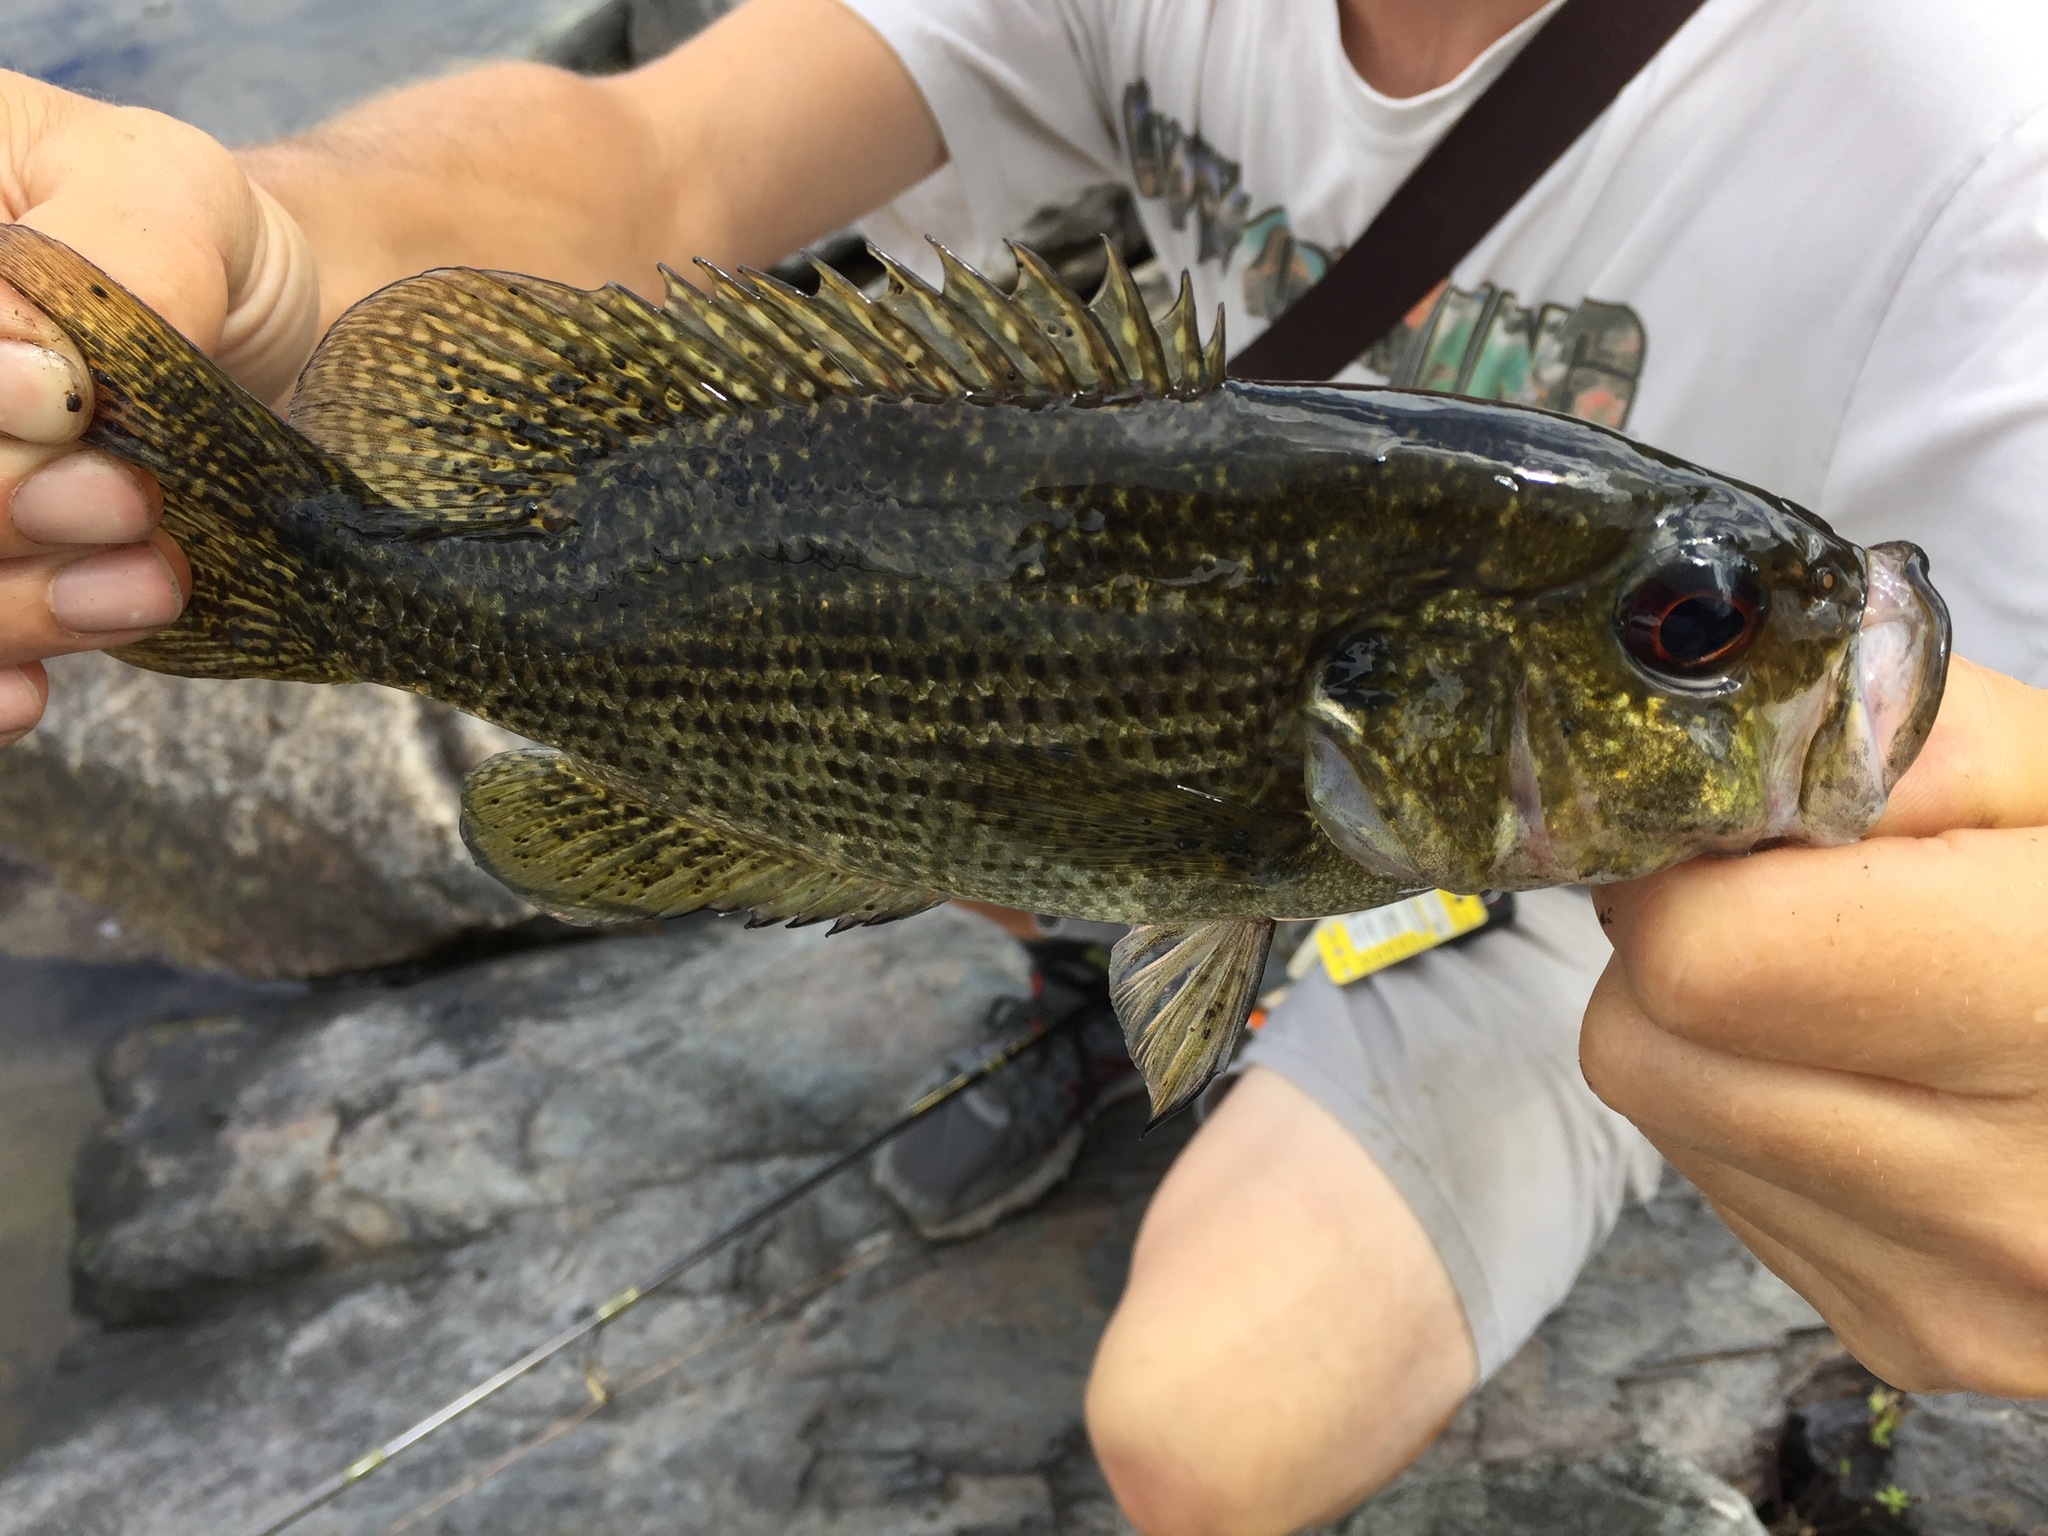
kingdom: Animalia
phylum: Chordata
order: Perciformes
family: Centrarchidae
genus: Ambloplites
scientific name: Ambloplites rupestris
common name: Rock bass
